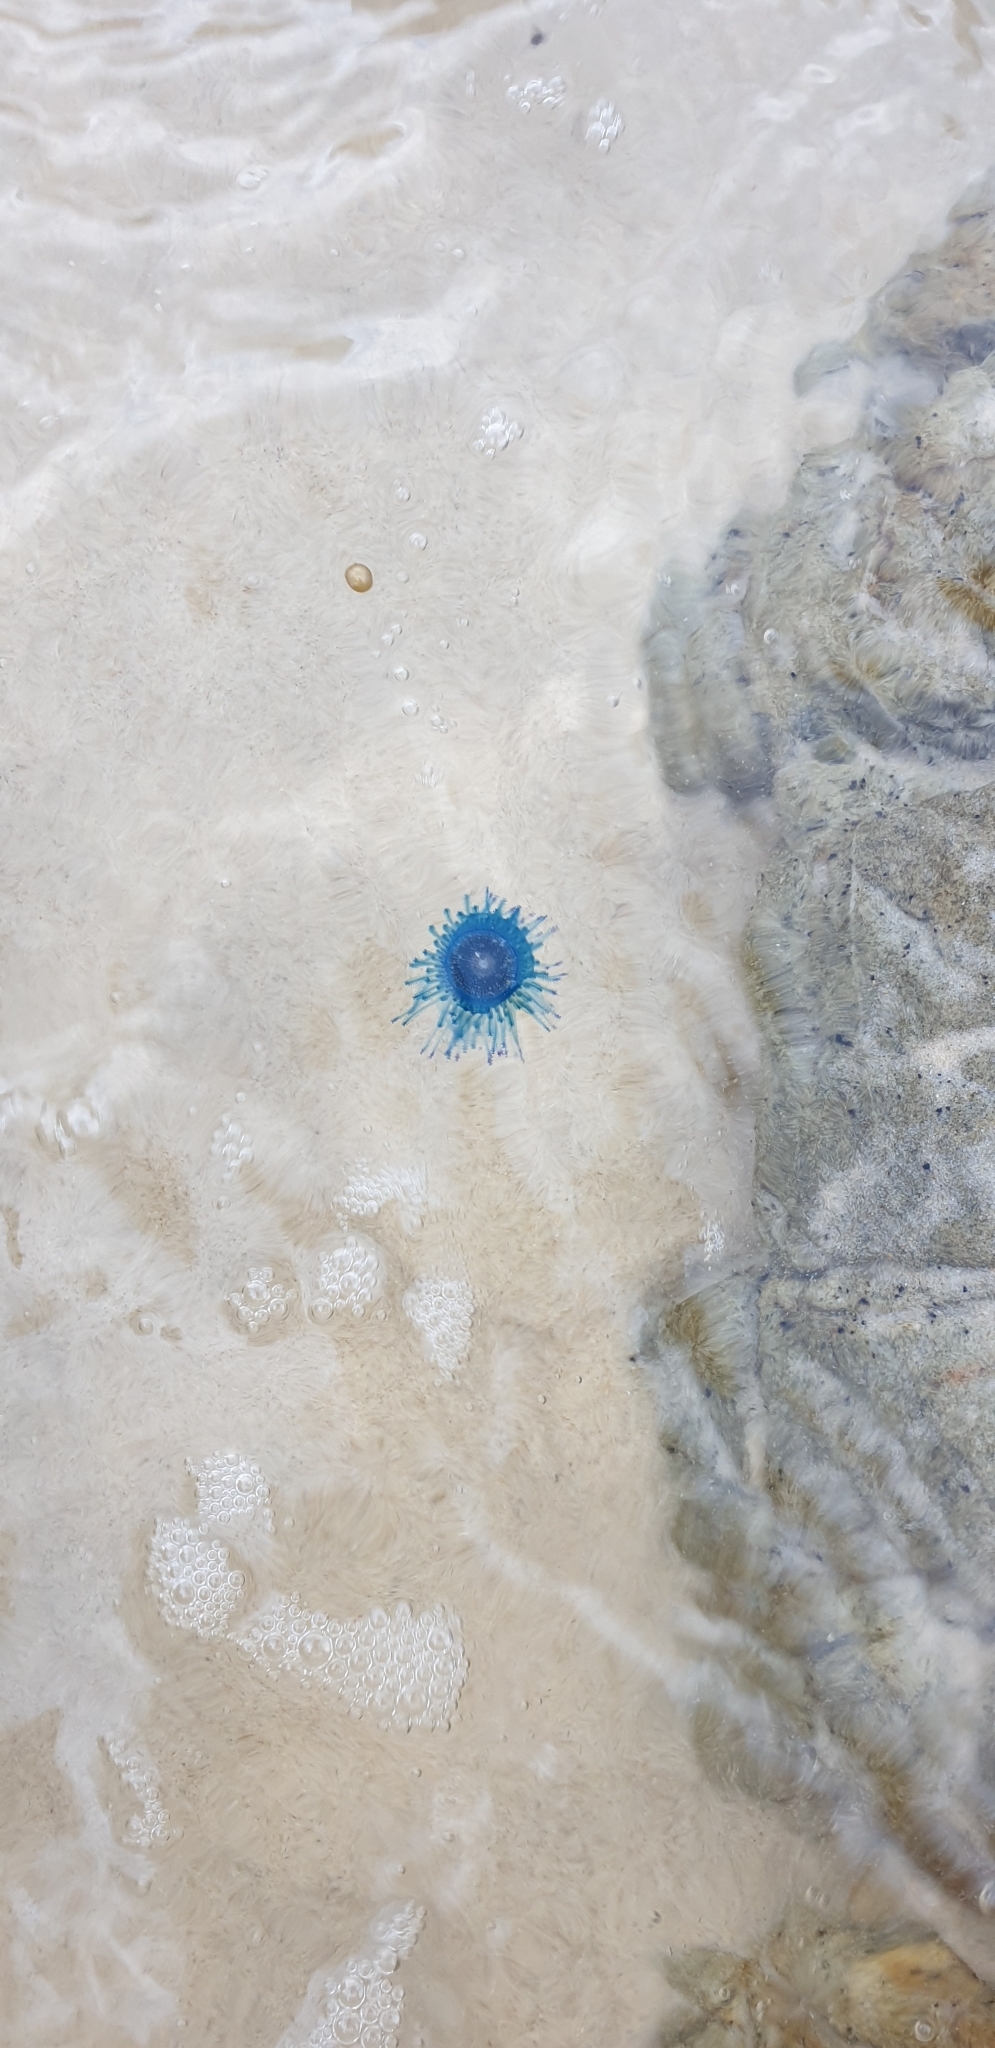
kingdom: Animalia
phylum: Cnidaria
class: Hydrozoa
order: Anthoathecata
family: Porpitidae
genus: Porpita
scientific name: Porpita porpita
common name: Blue button
